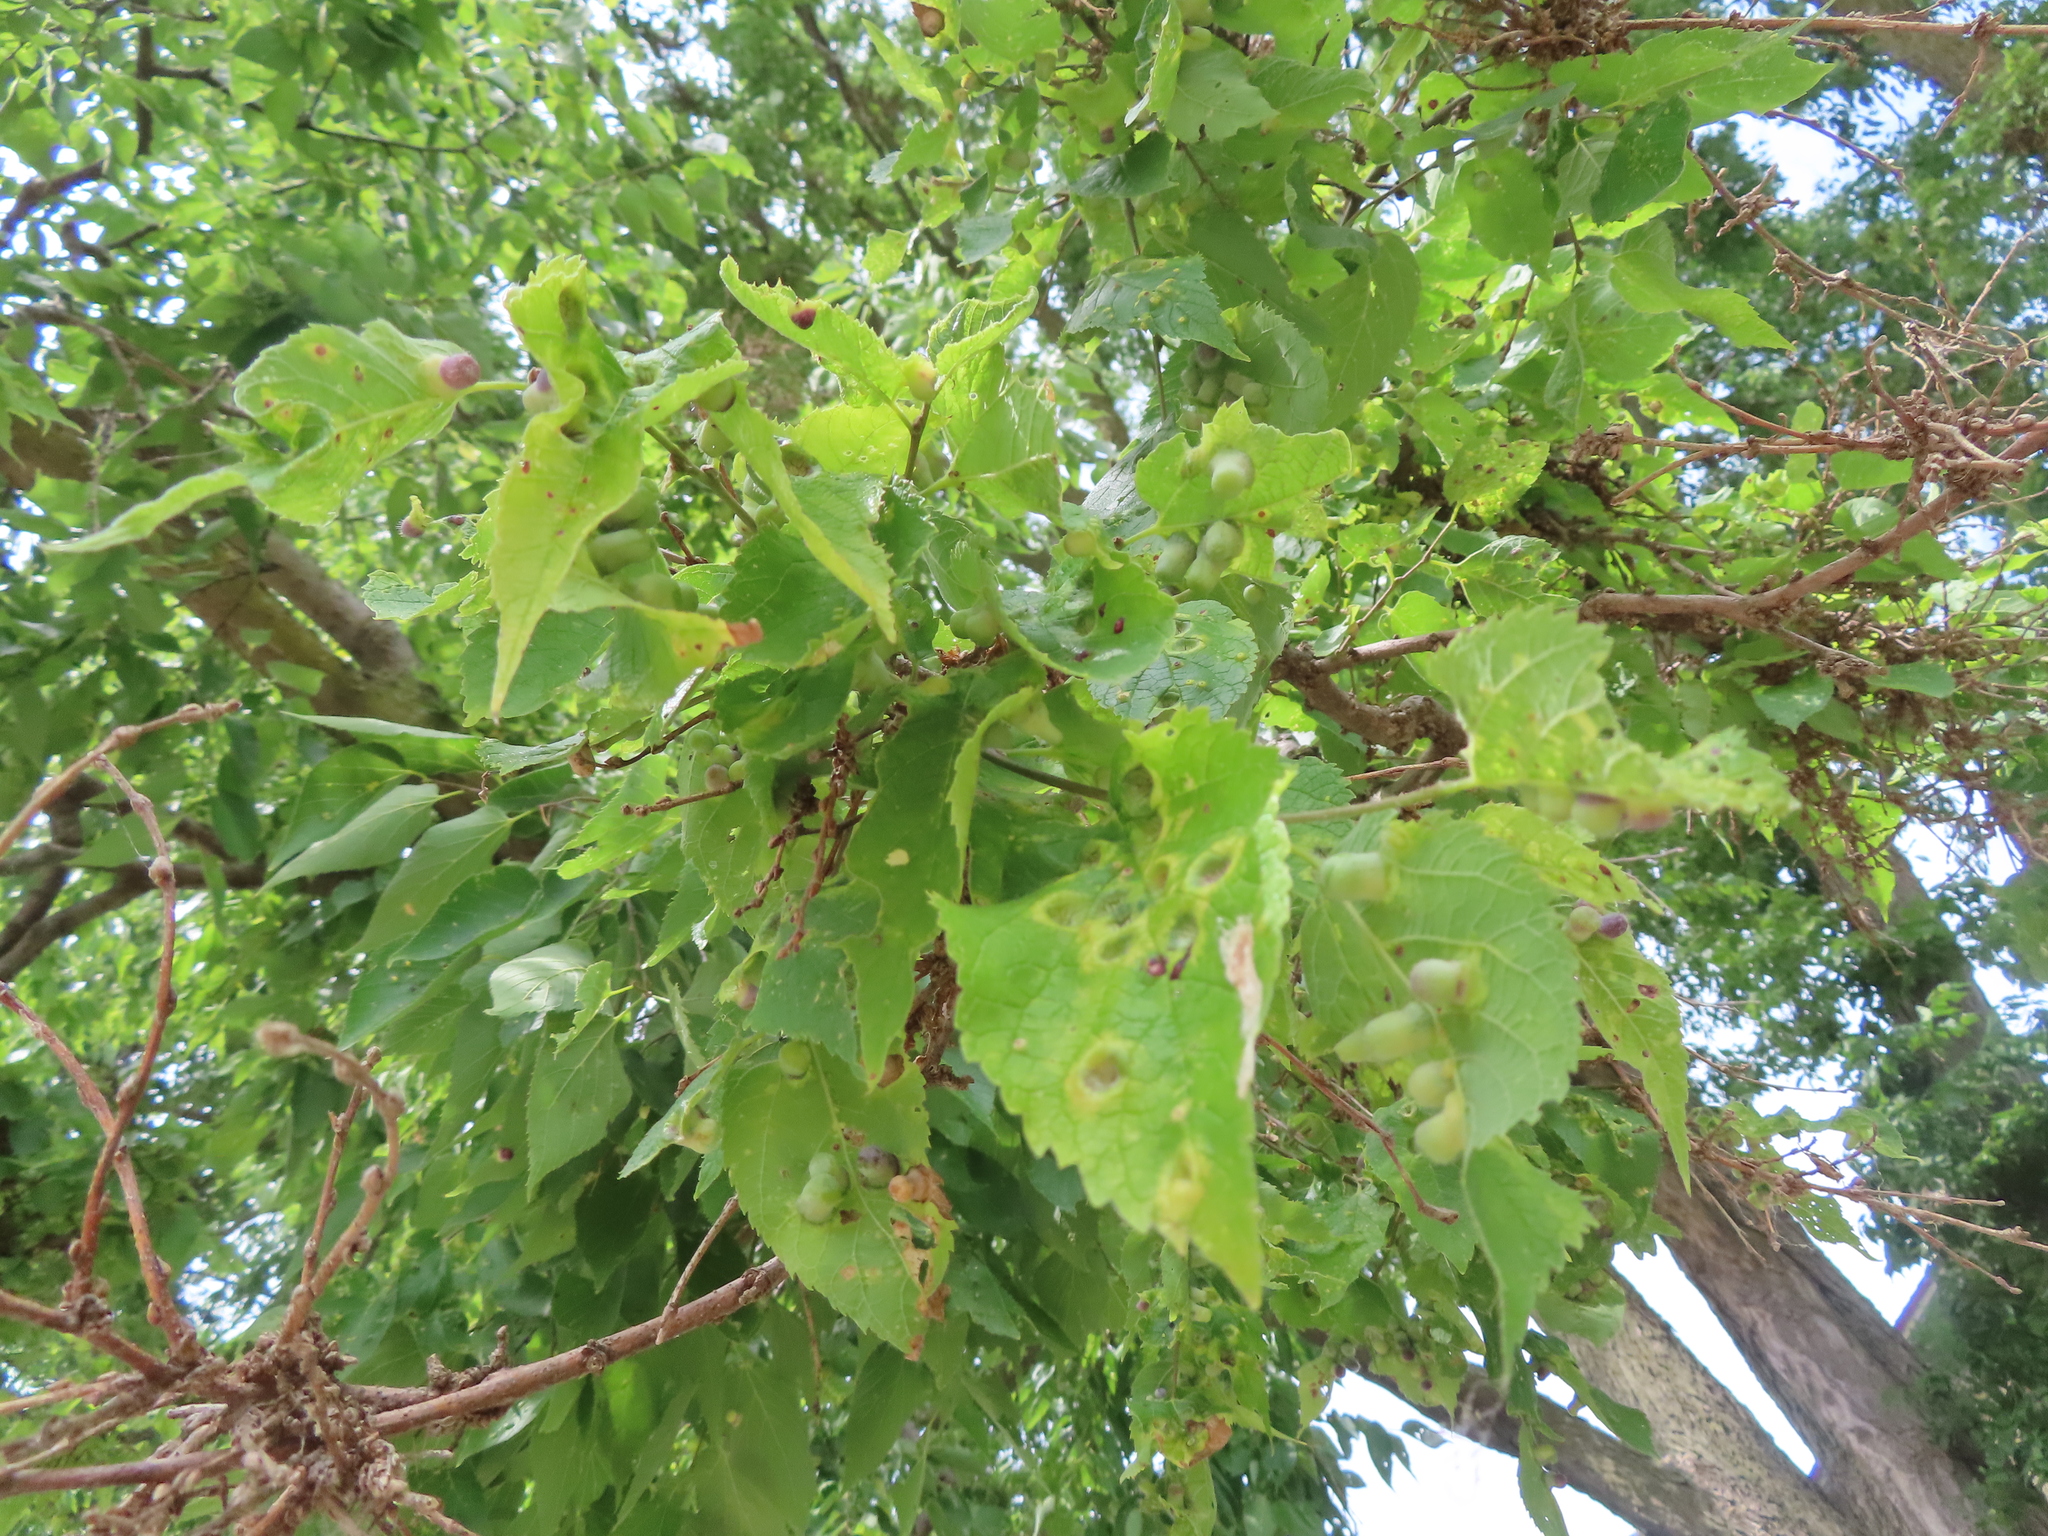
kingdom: Animalia
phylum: Arthropoda
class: Insecta
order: Hemiptera
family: Aphalaridae
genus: Pachypsylla
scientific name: Pachypsylla celtidismamma
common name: Hackberry nipplegall psyllid
